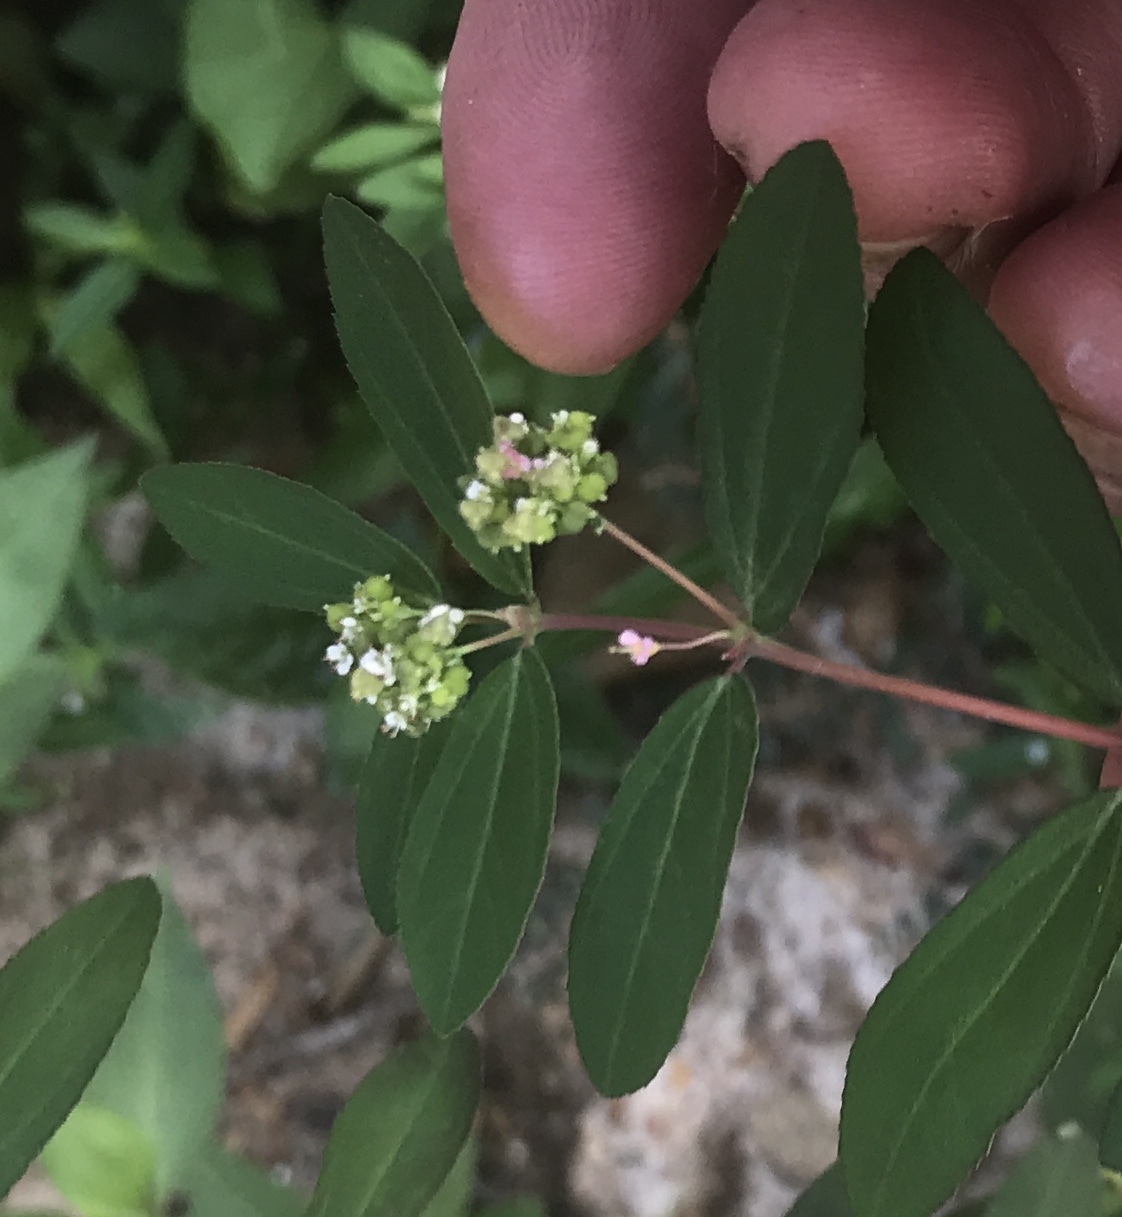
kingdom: Plantae
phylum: Tracheophyta
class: Magnoliopsida
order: Malpighiales
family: Euphorbiaceae
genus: Euphorbia
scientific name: Euphorbia hypericifolia
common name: Graceful sandmat
